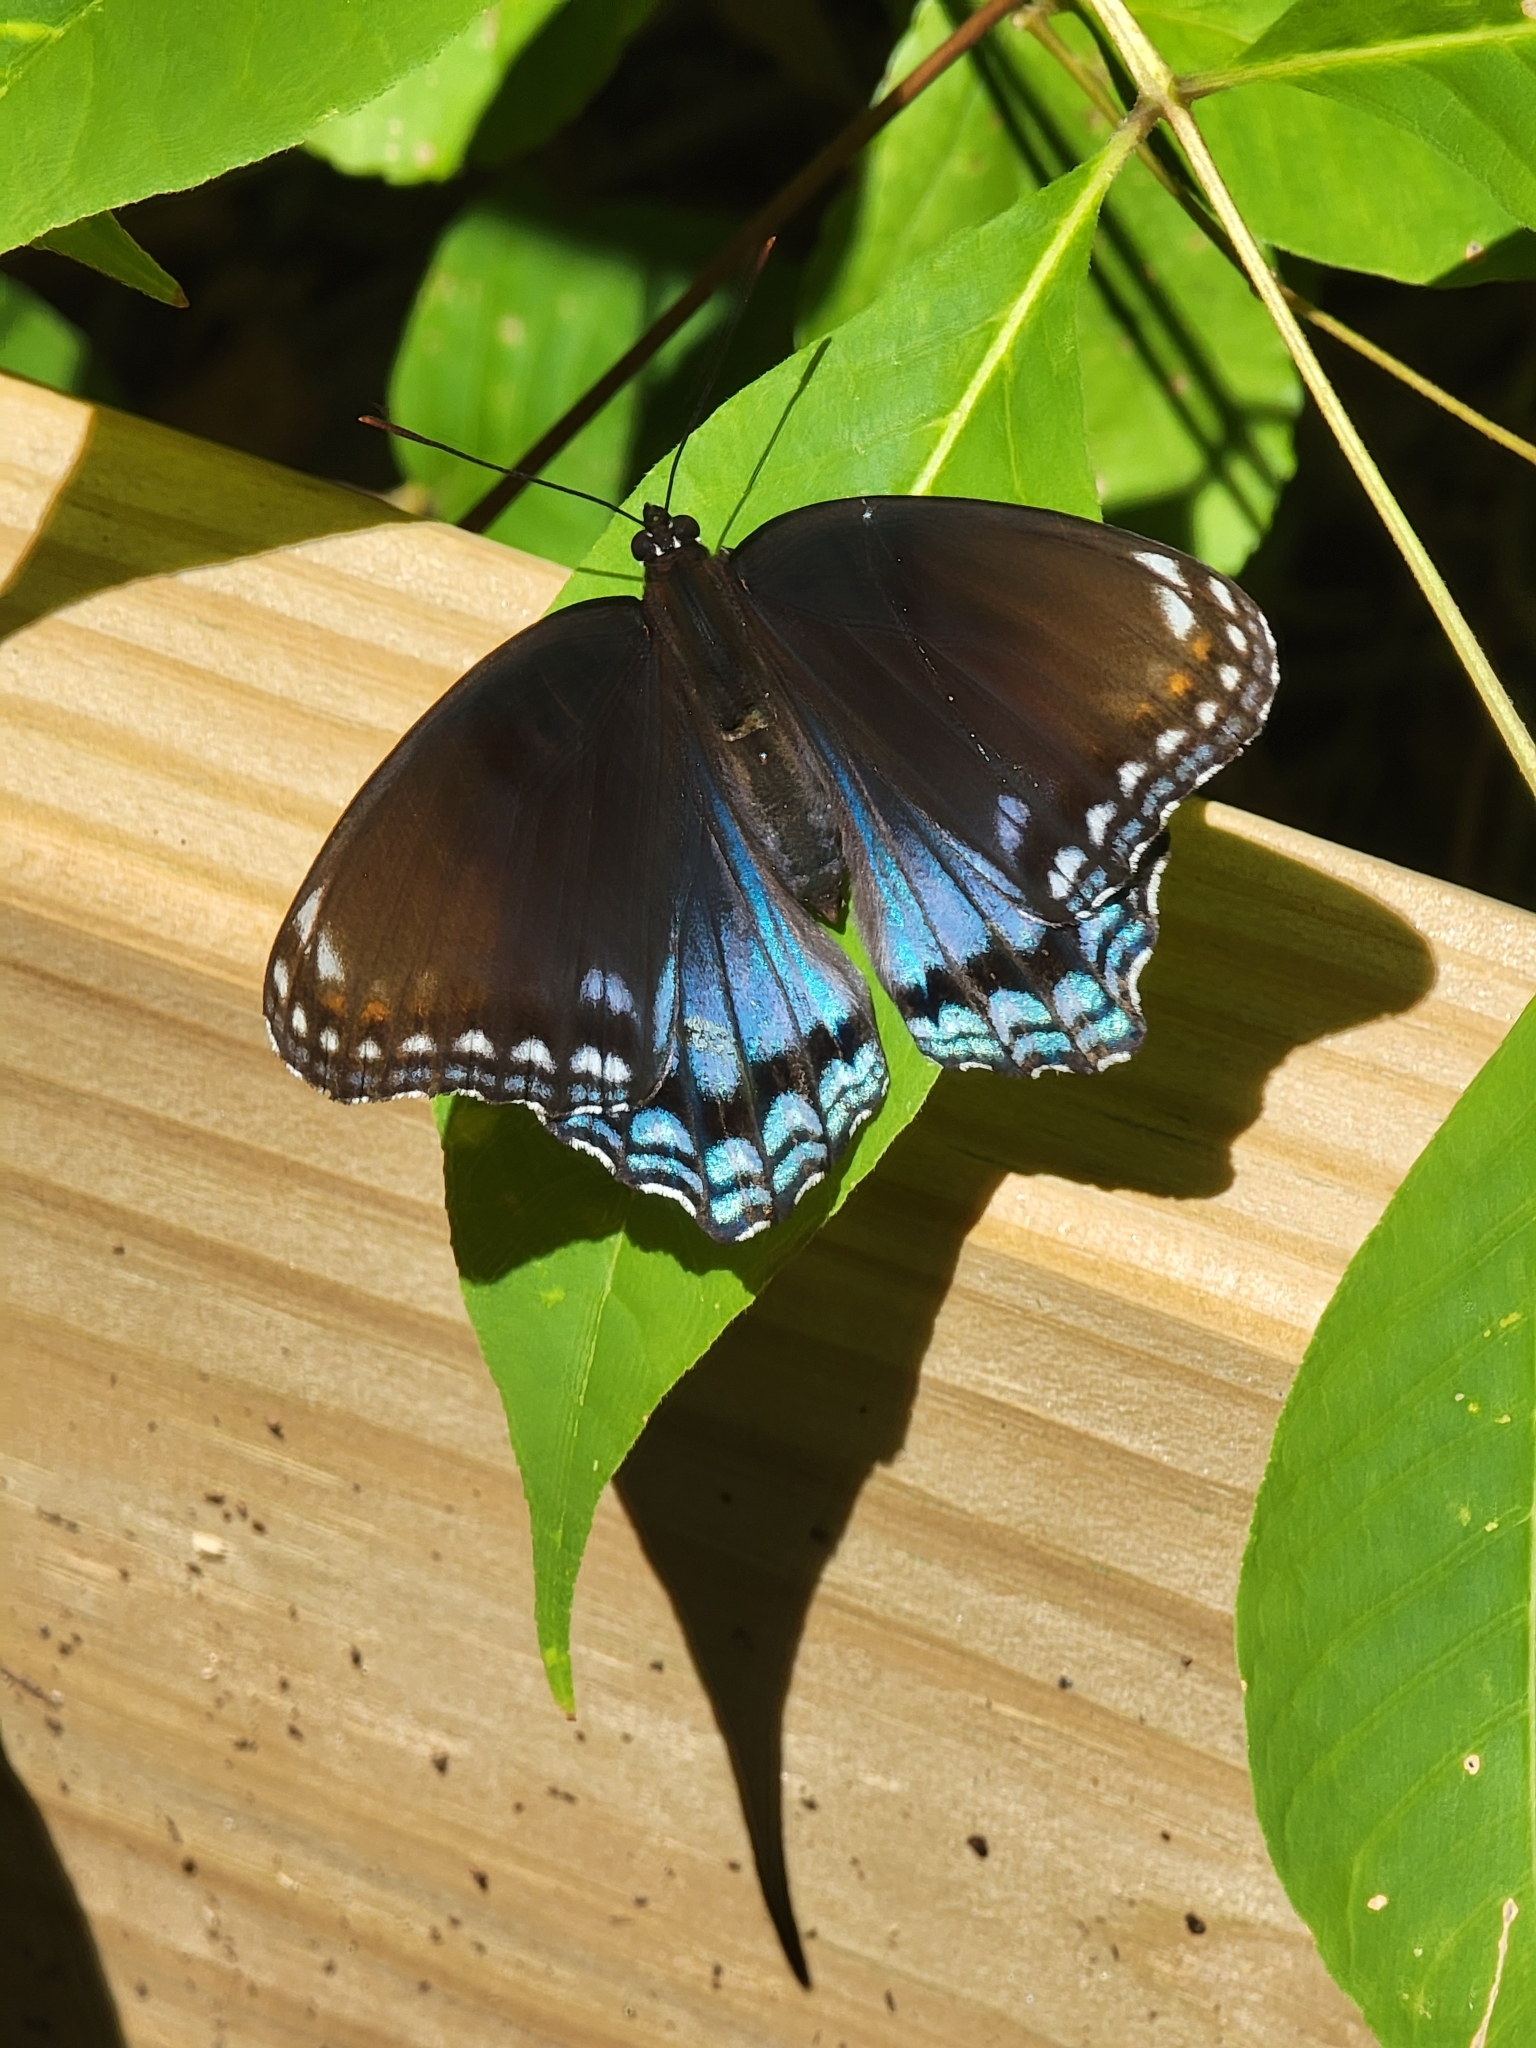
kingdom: Animalia
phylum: Arthropoda
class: Insecta
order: Lepidoptera
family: Nymphalidae
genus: Limenitis
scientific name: Limenitis astyanax
